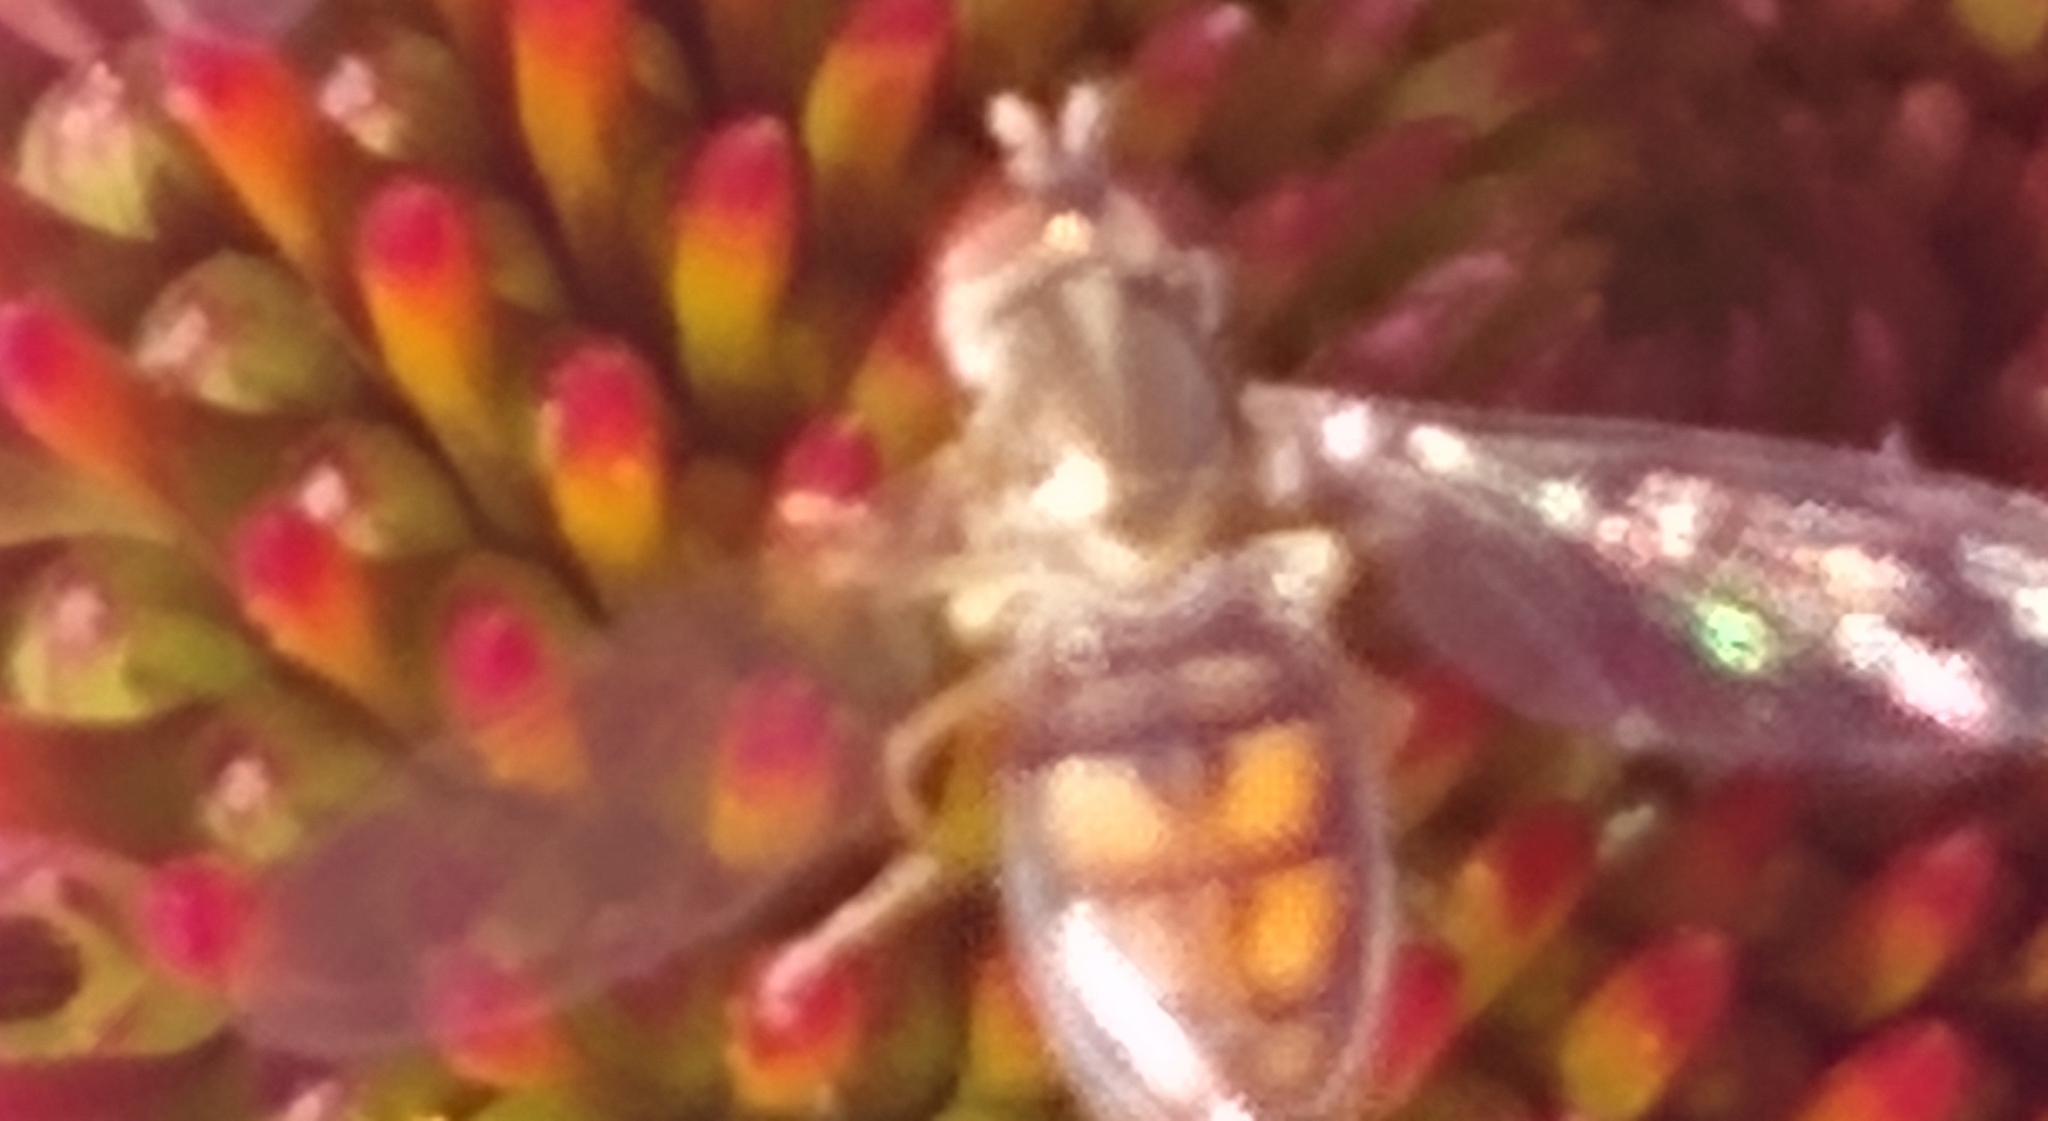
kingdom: Animalia
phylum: Arthropoda
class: Insecta
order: Diptera
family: Syrphidae
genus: Toxomerus
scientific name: Toxomerus marginatus
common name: Syrphid fly
